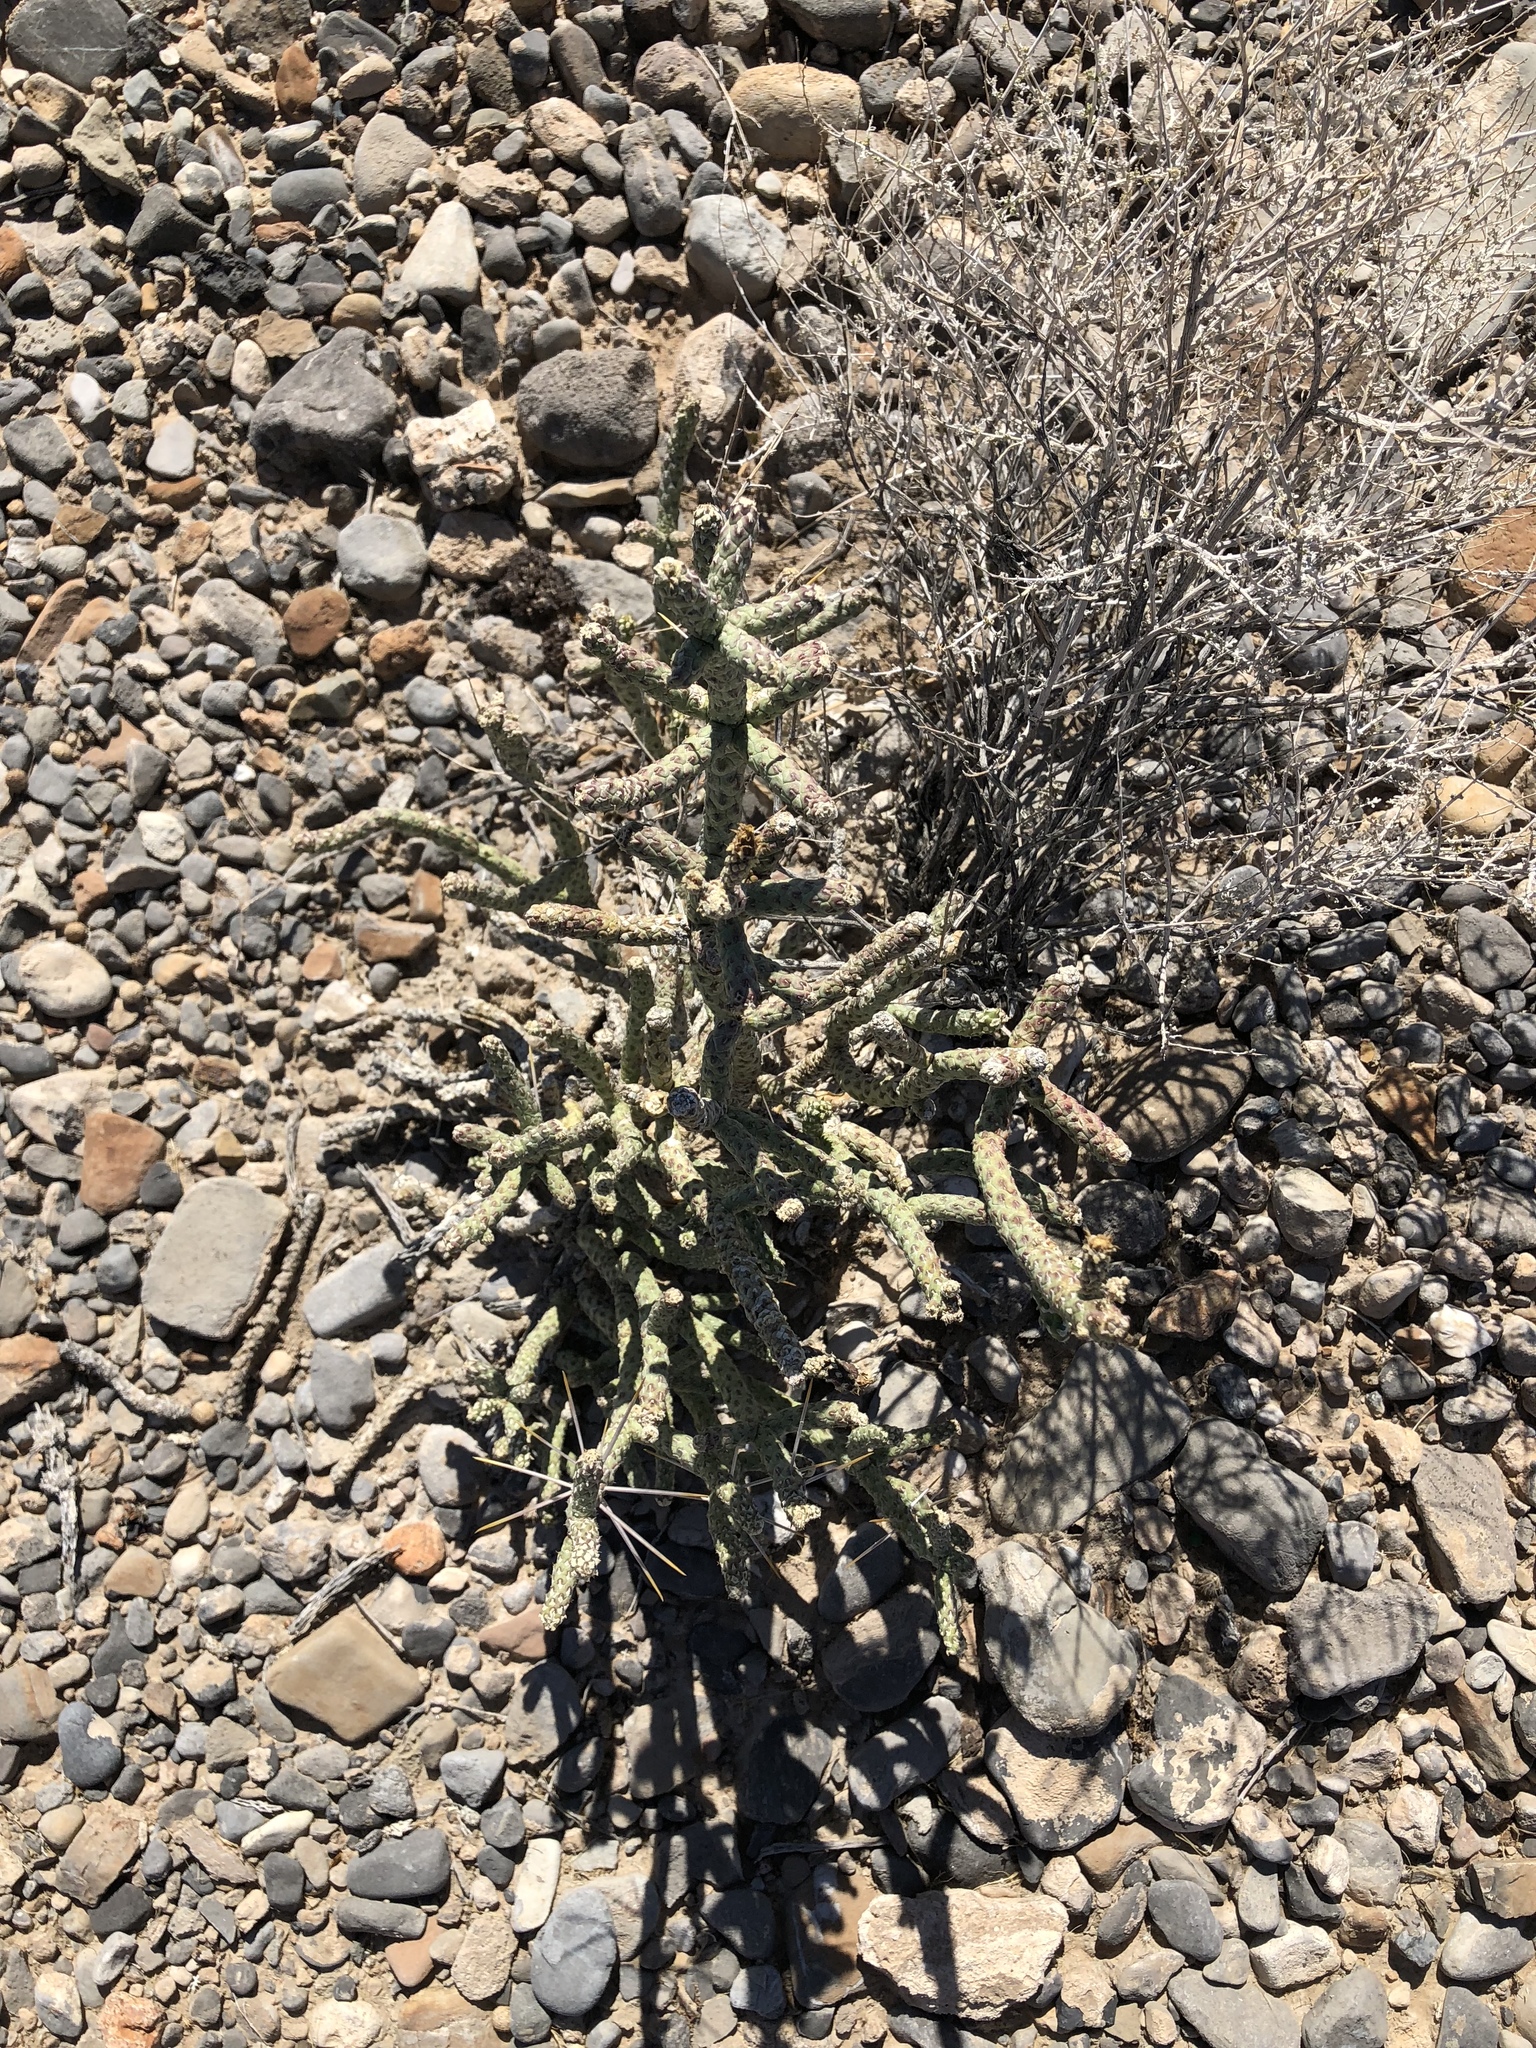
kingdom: Plantae
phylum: Tracheophyta
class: Magnoliopsida
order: Caryophyllales
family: Cactaceae
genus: Cylindropuntia
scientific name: Cylindropuntia ramosissima
